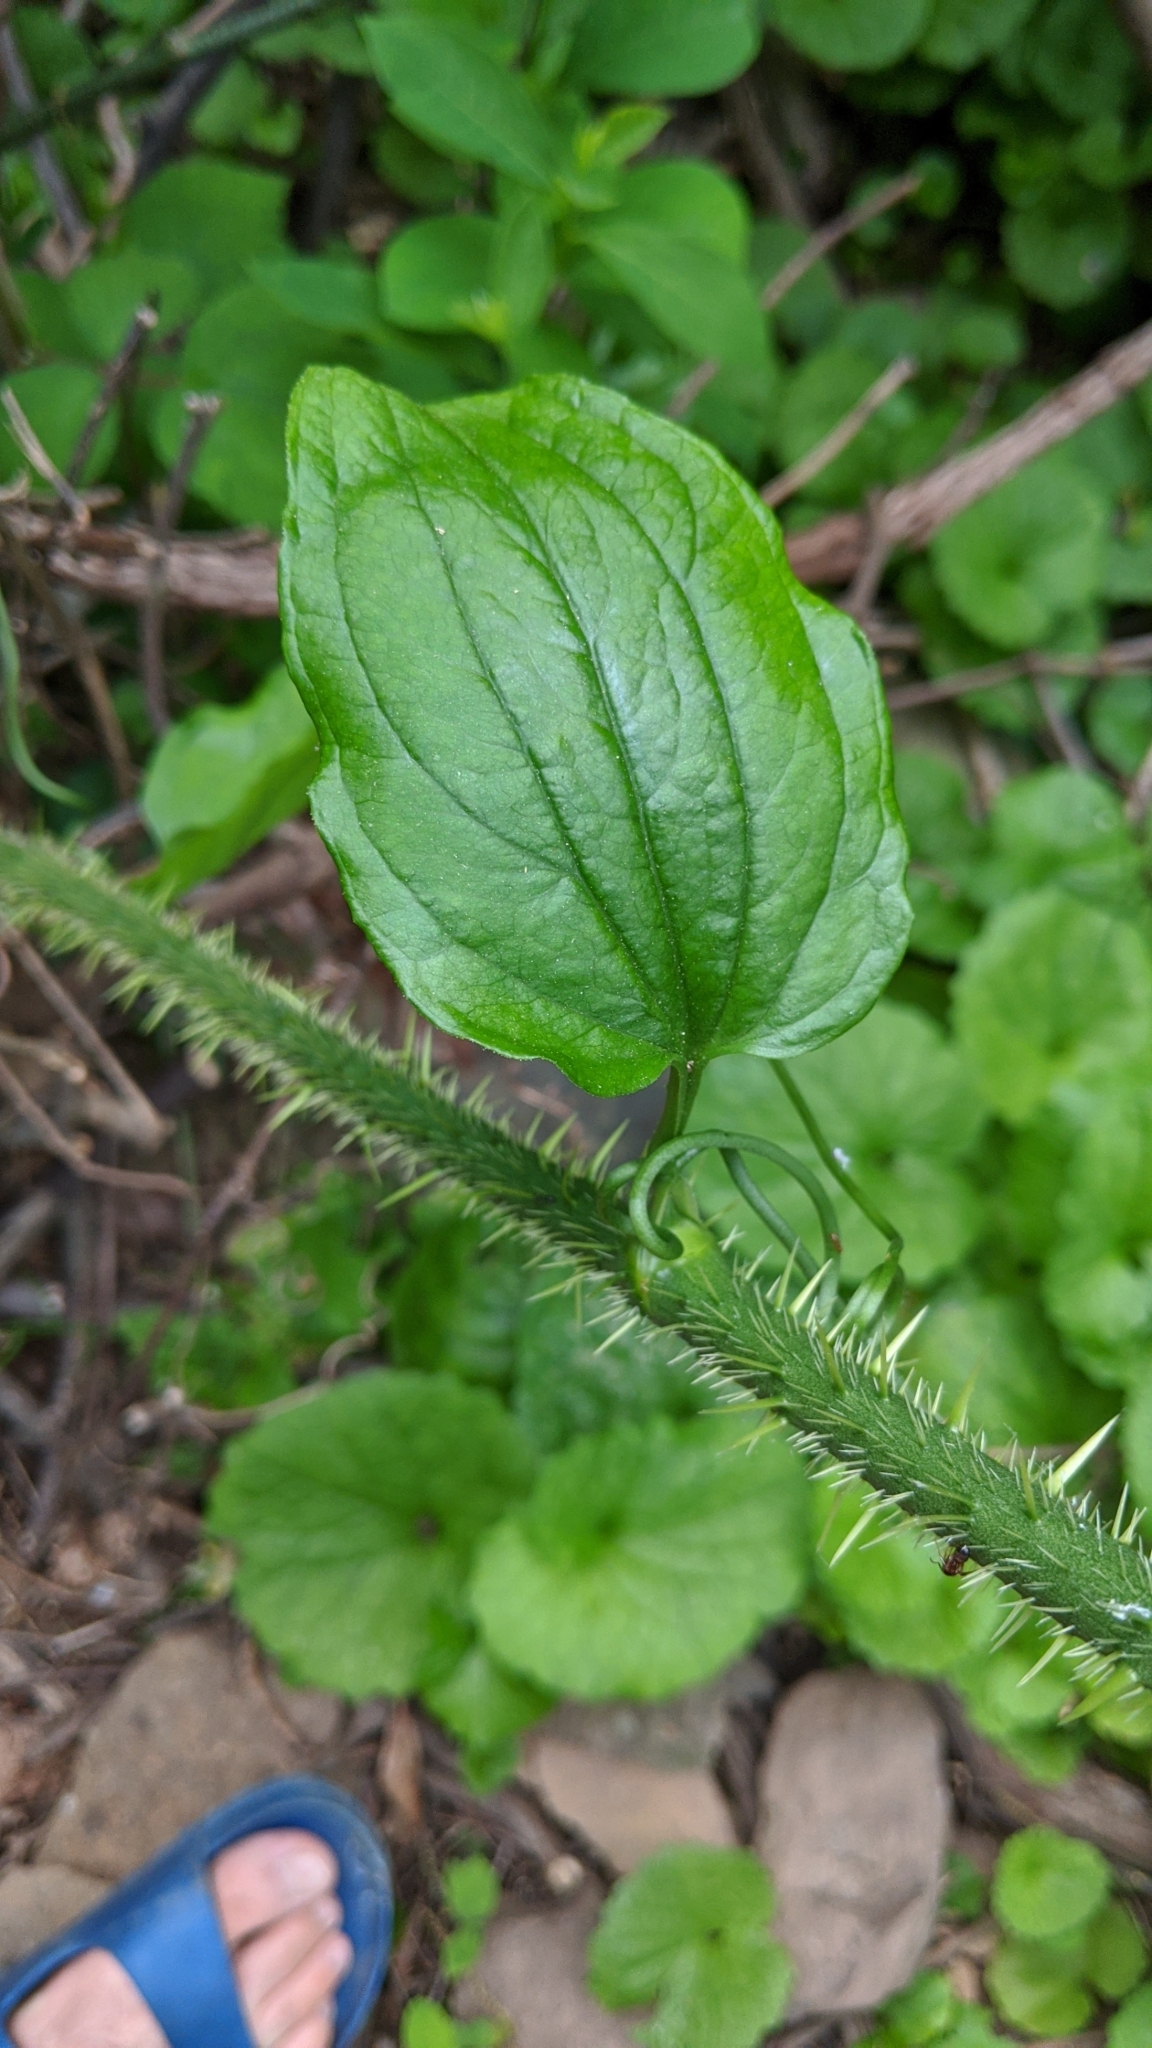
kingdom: Plantae
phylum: Tracheophyta
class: Liliopsida
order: Liliales
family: Smilacaceae
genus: Smilax
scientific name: Smilax tamnoides
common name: Hellfetter
